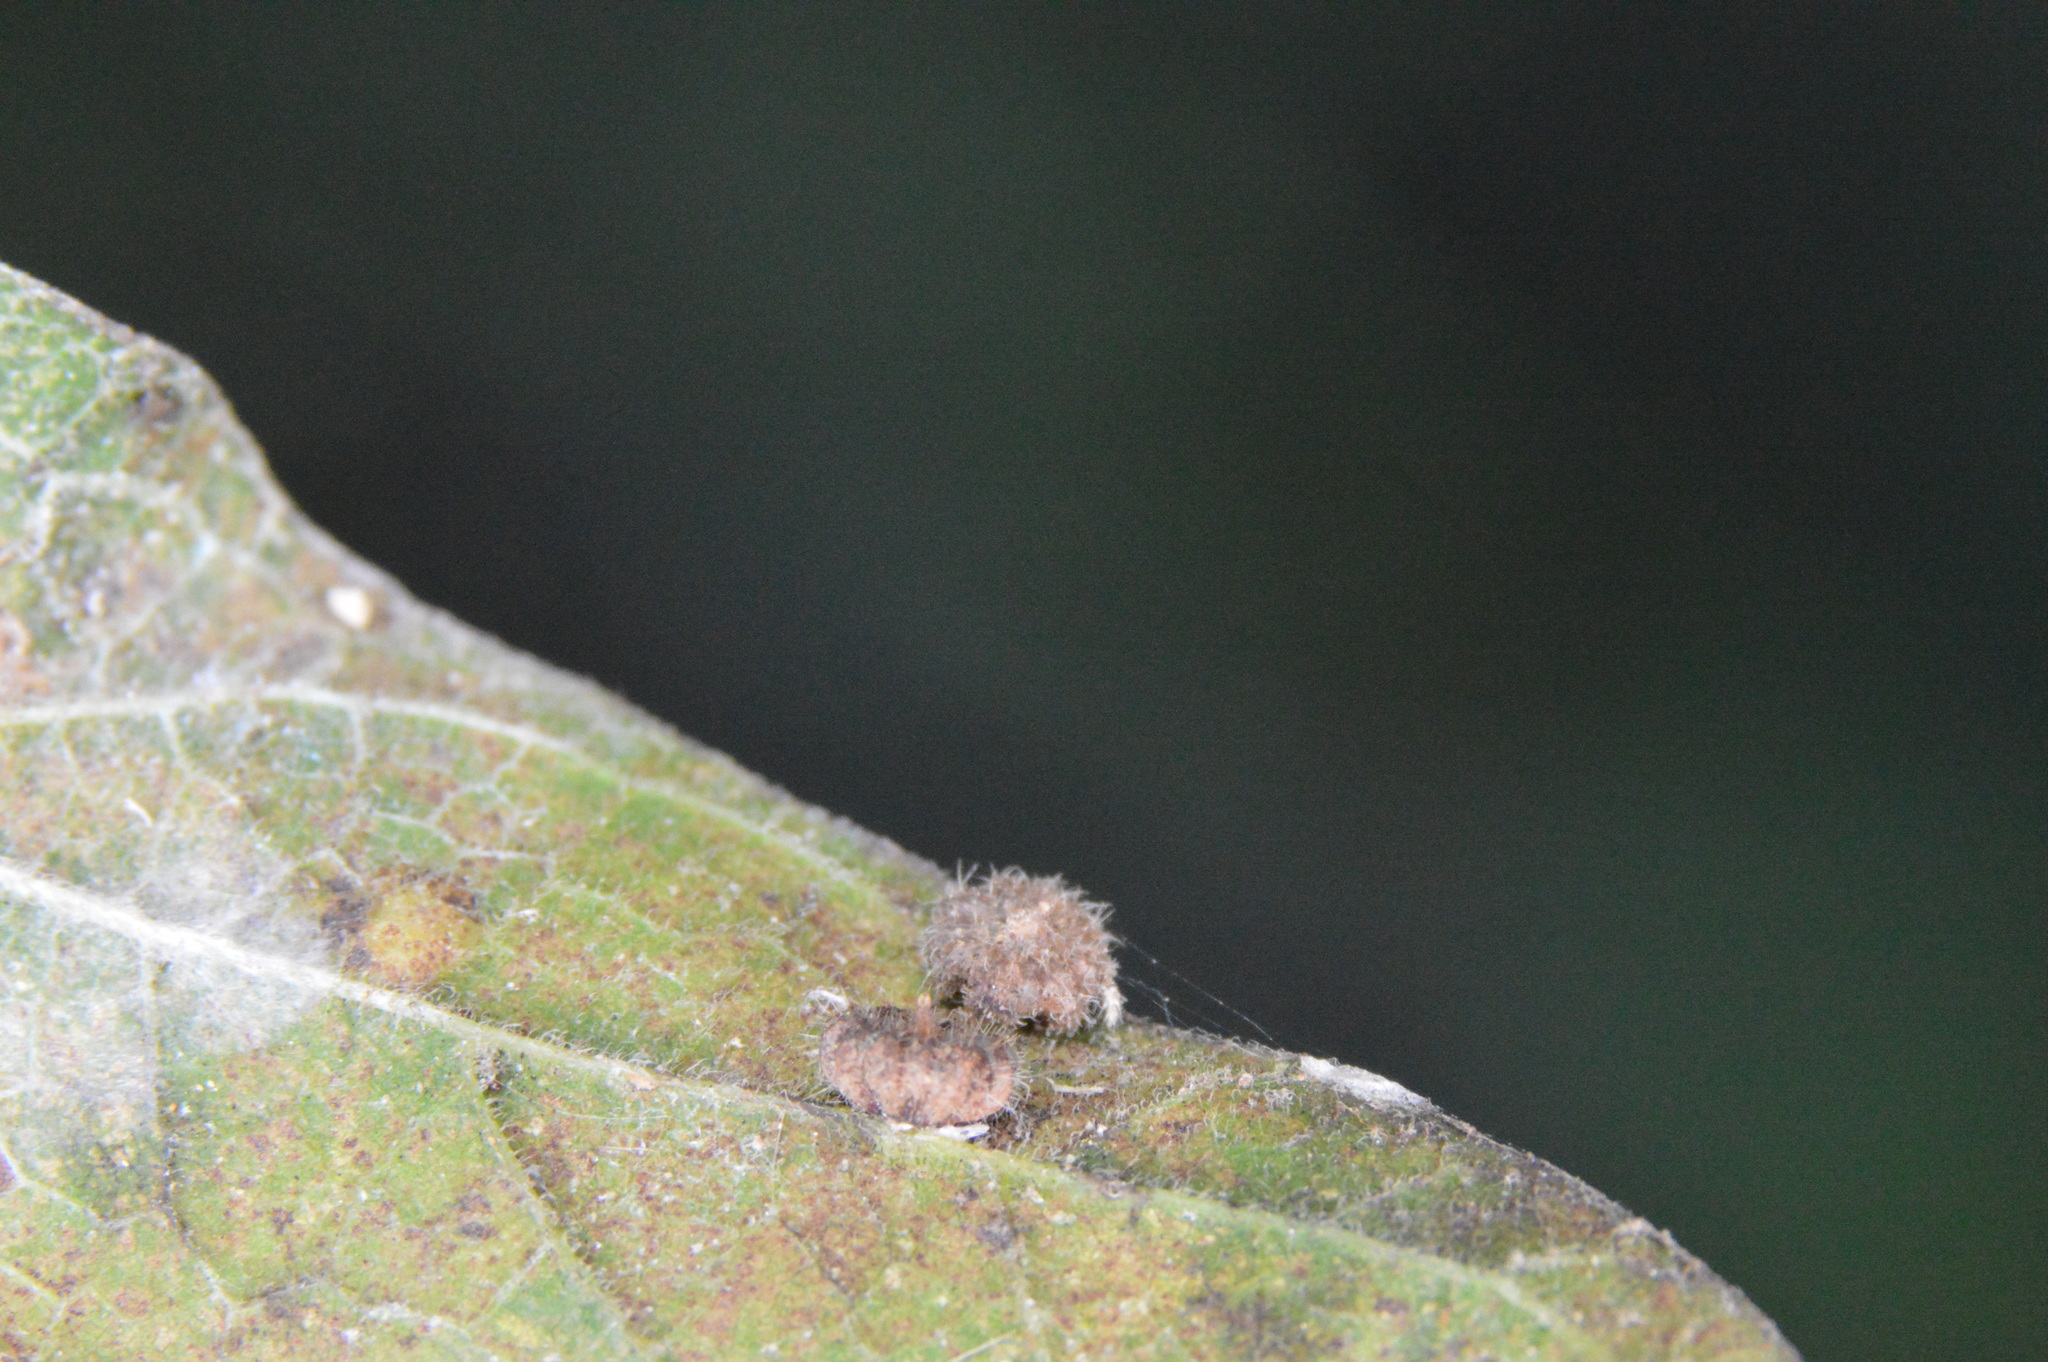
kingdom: Animalia
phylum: Arthropoda
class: Insecta
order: Diptera
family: Cecidomyiidae
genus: Celticecis
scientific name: Celticecis capsularis
